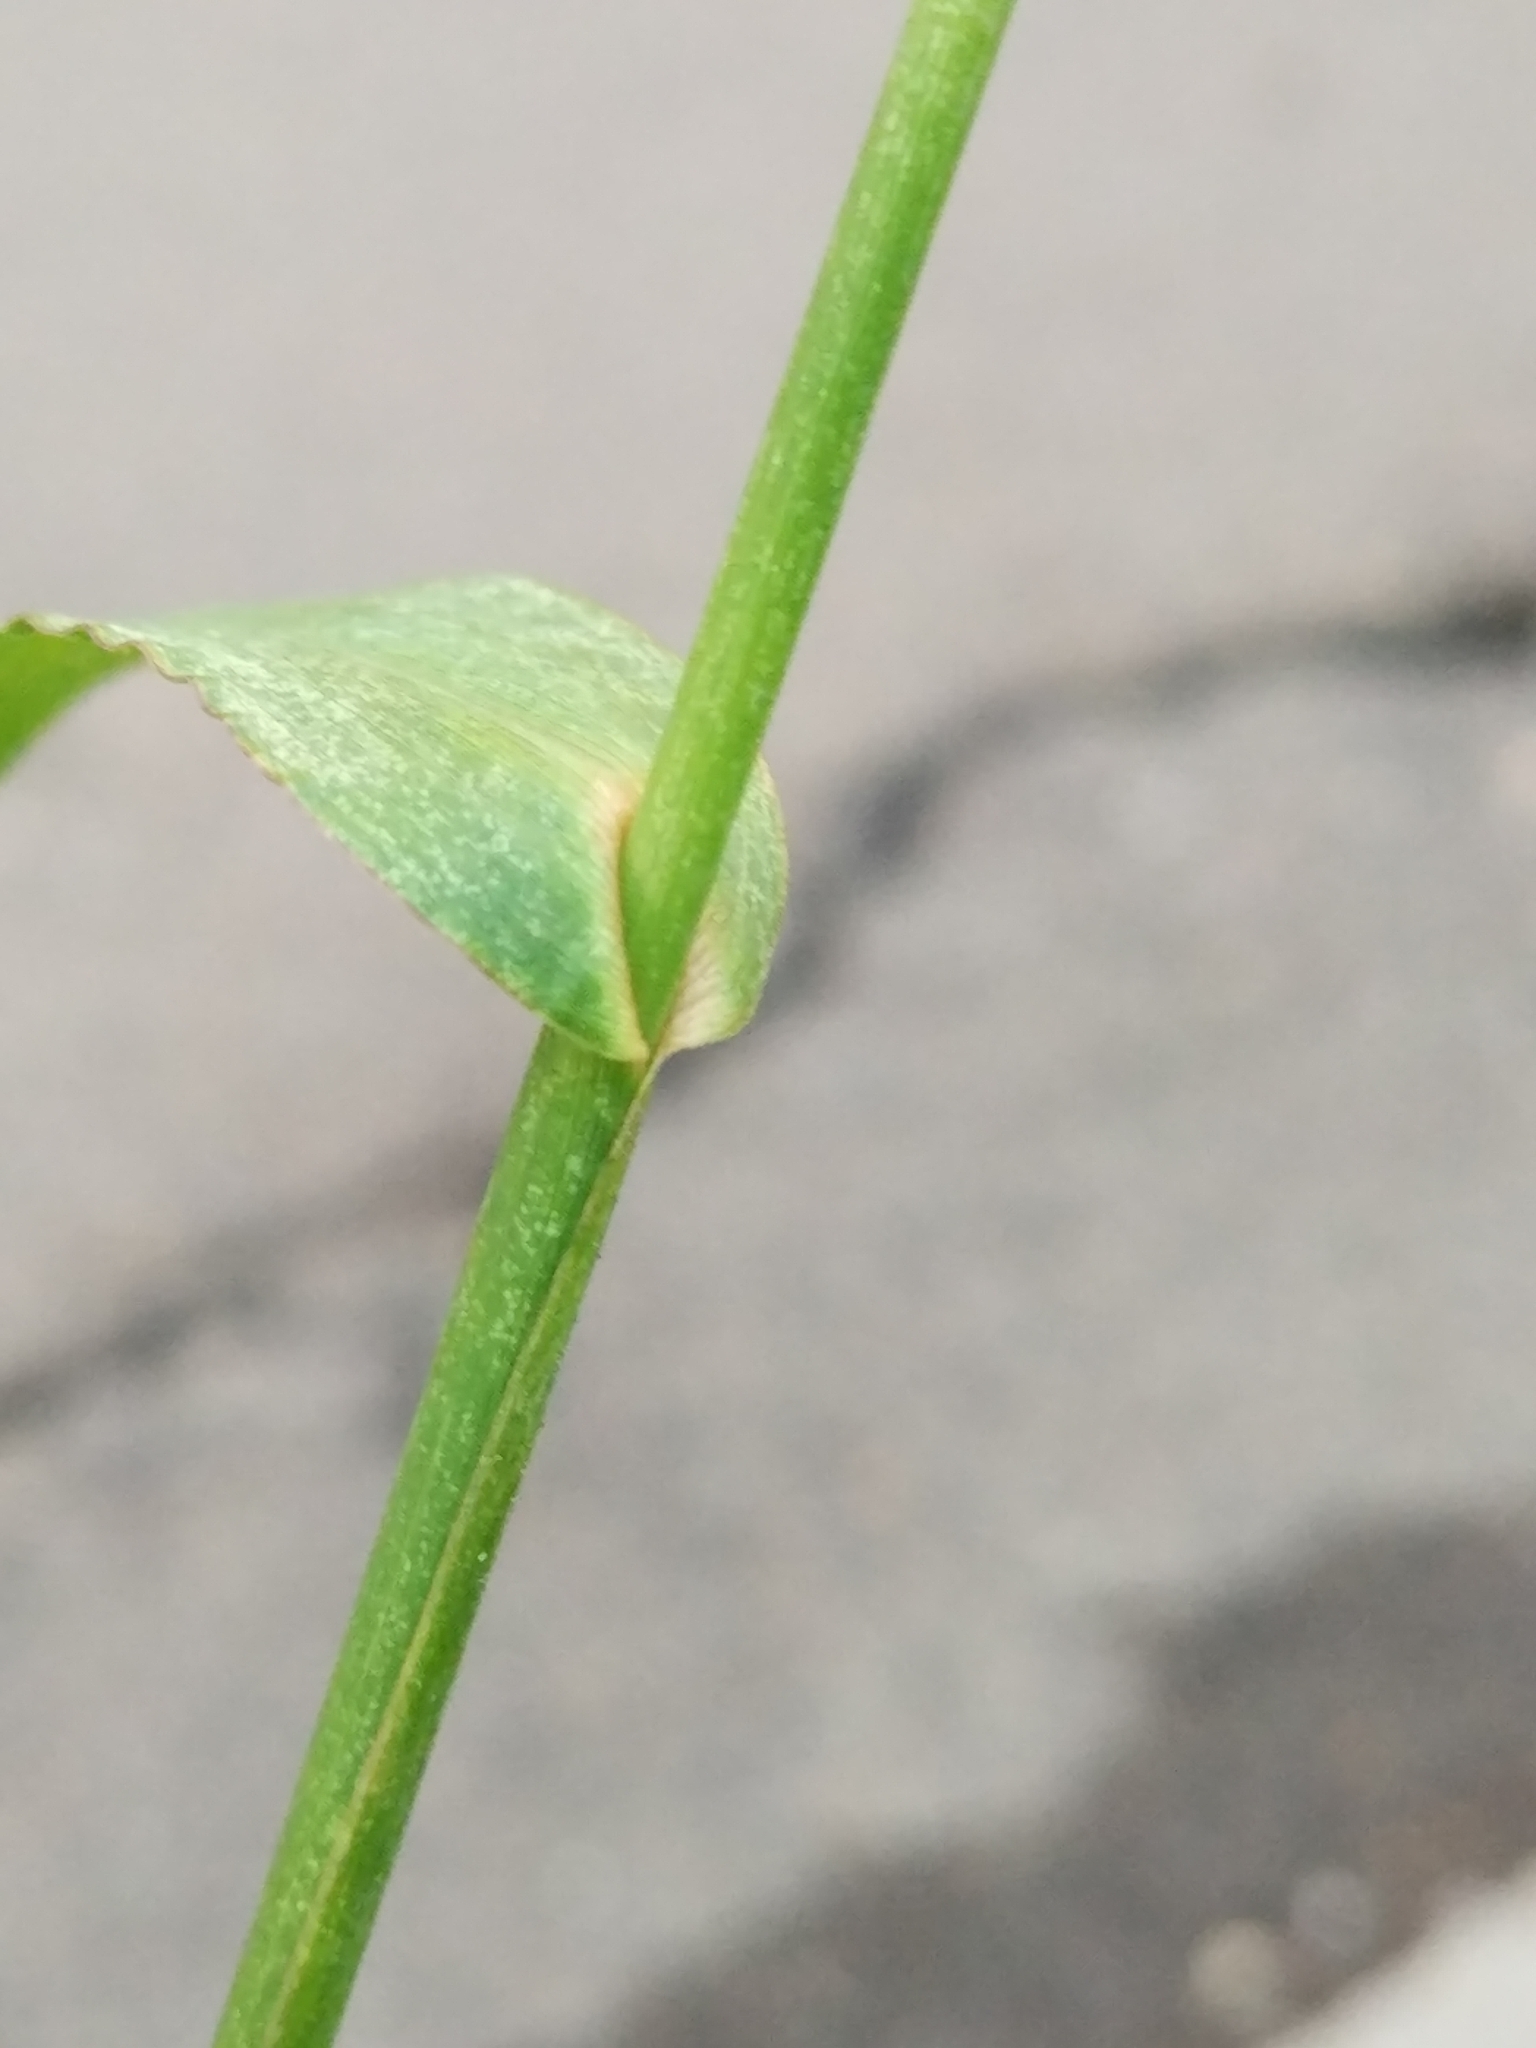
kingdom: Plantae
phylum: Tracheophyta
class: Liliopsida
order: Poales
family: Poaceae
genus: Echinochloa
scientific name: Echinochloa crus-galli
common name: Cockspur
